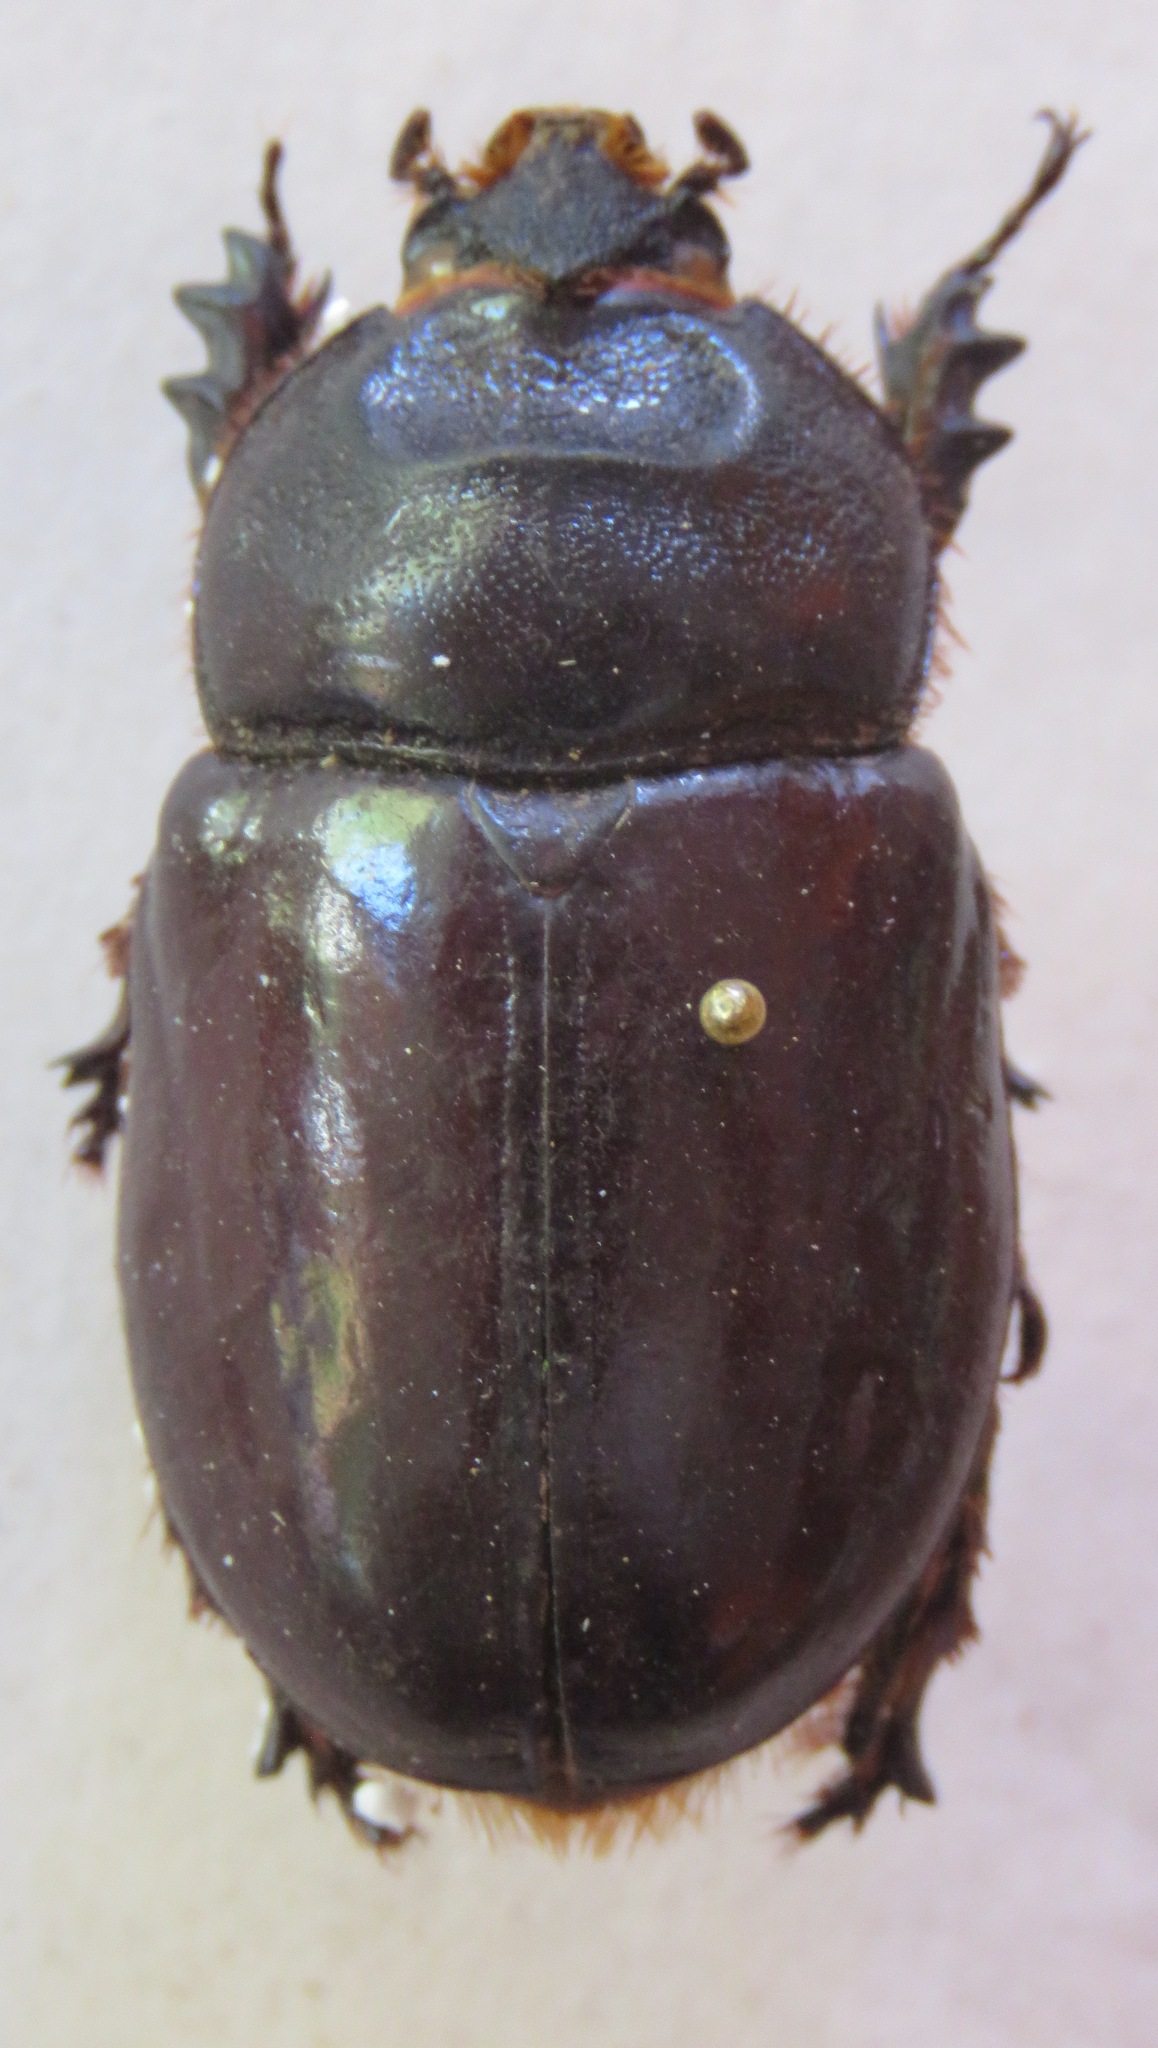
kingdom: Animalia
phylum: Arthropoda
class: Insecta
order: Coleoptera
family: Scarabaeidae
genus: Oryctes
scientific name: Oryctes nasicornis
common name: European rhinoceros beetle
